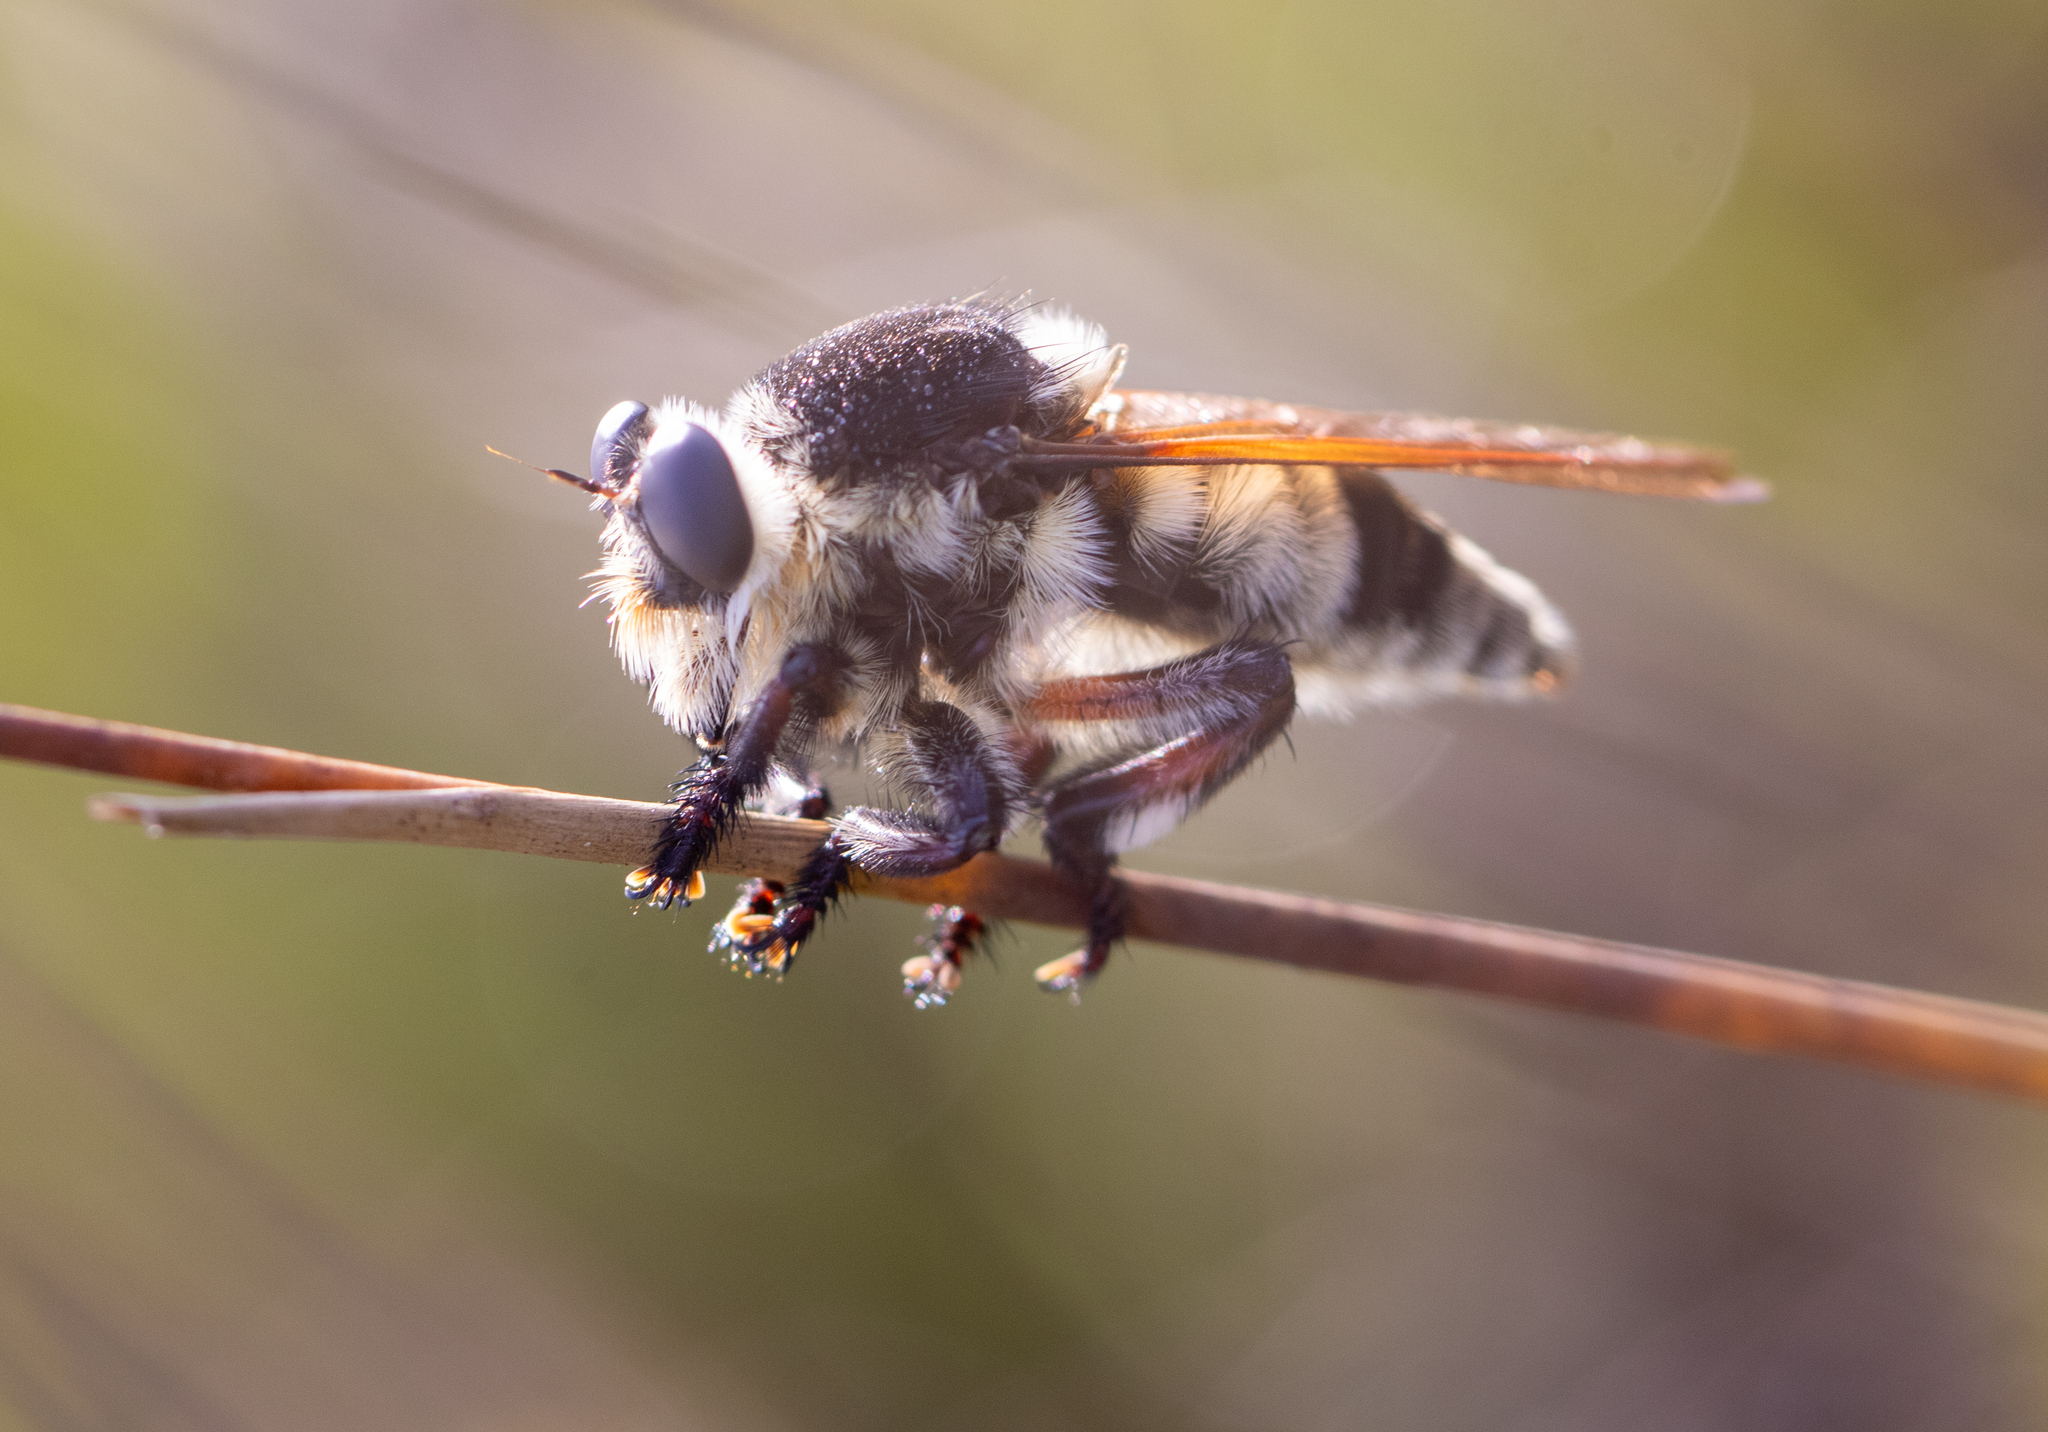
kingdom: Animalia
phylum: Arthropoda
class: Insecta
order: Diptera
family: Asilidae
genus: Mallophora
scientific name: Mallophora bomboides
